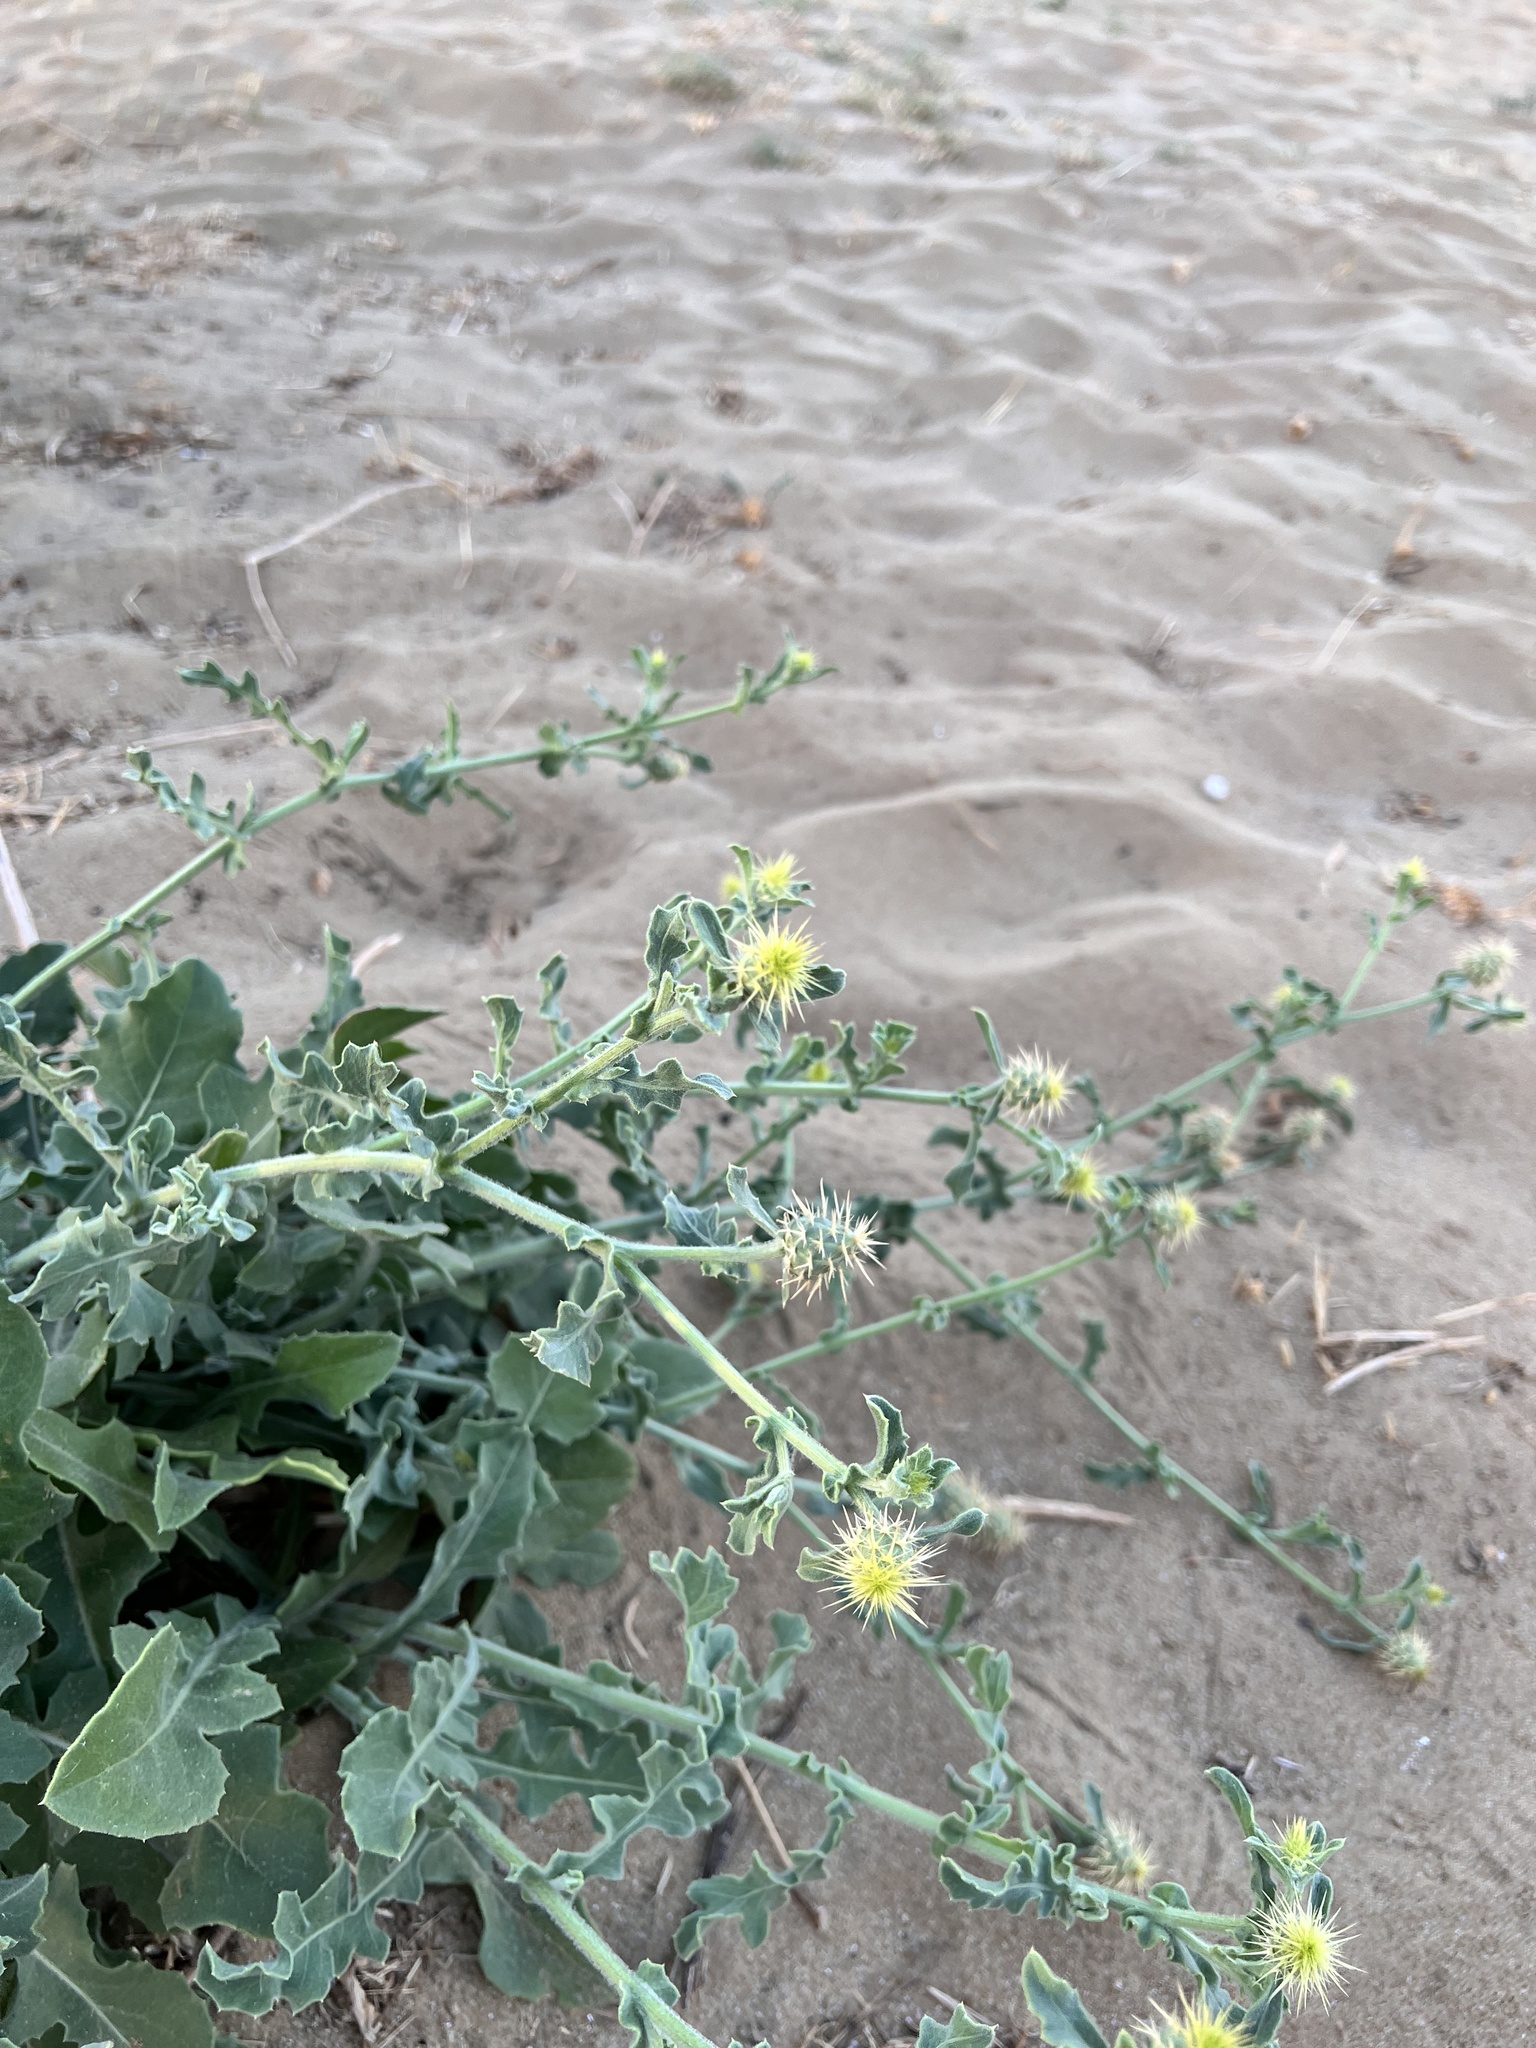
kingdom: Plantae
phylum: Tracheophyta
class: Magnoliopsida
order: Asterales
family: Asteraceae
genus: Centaurea
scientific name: Centaurea sphaerocephala
